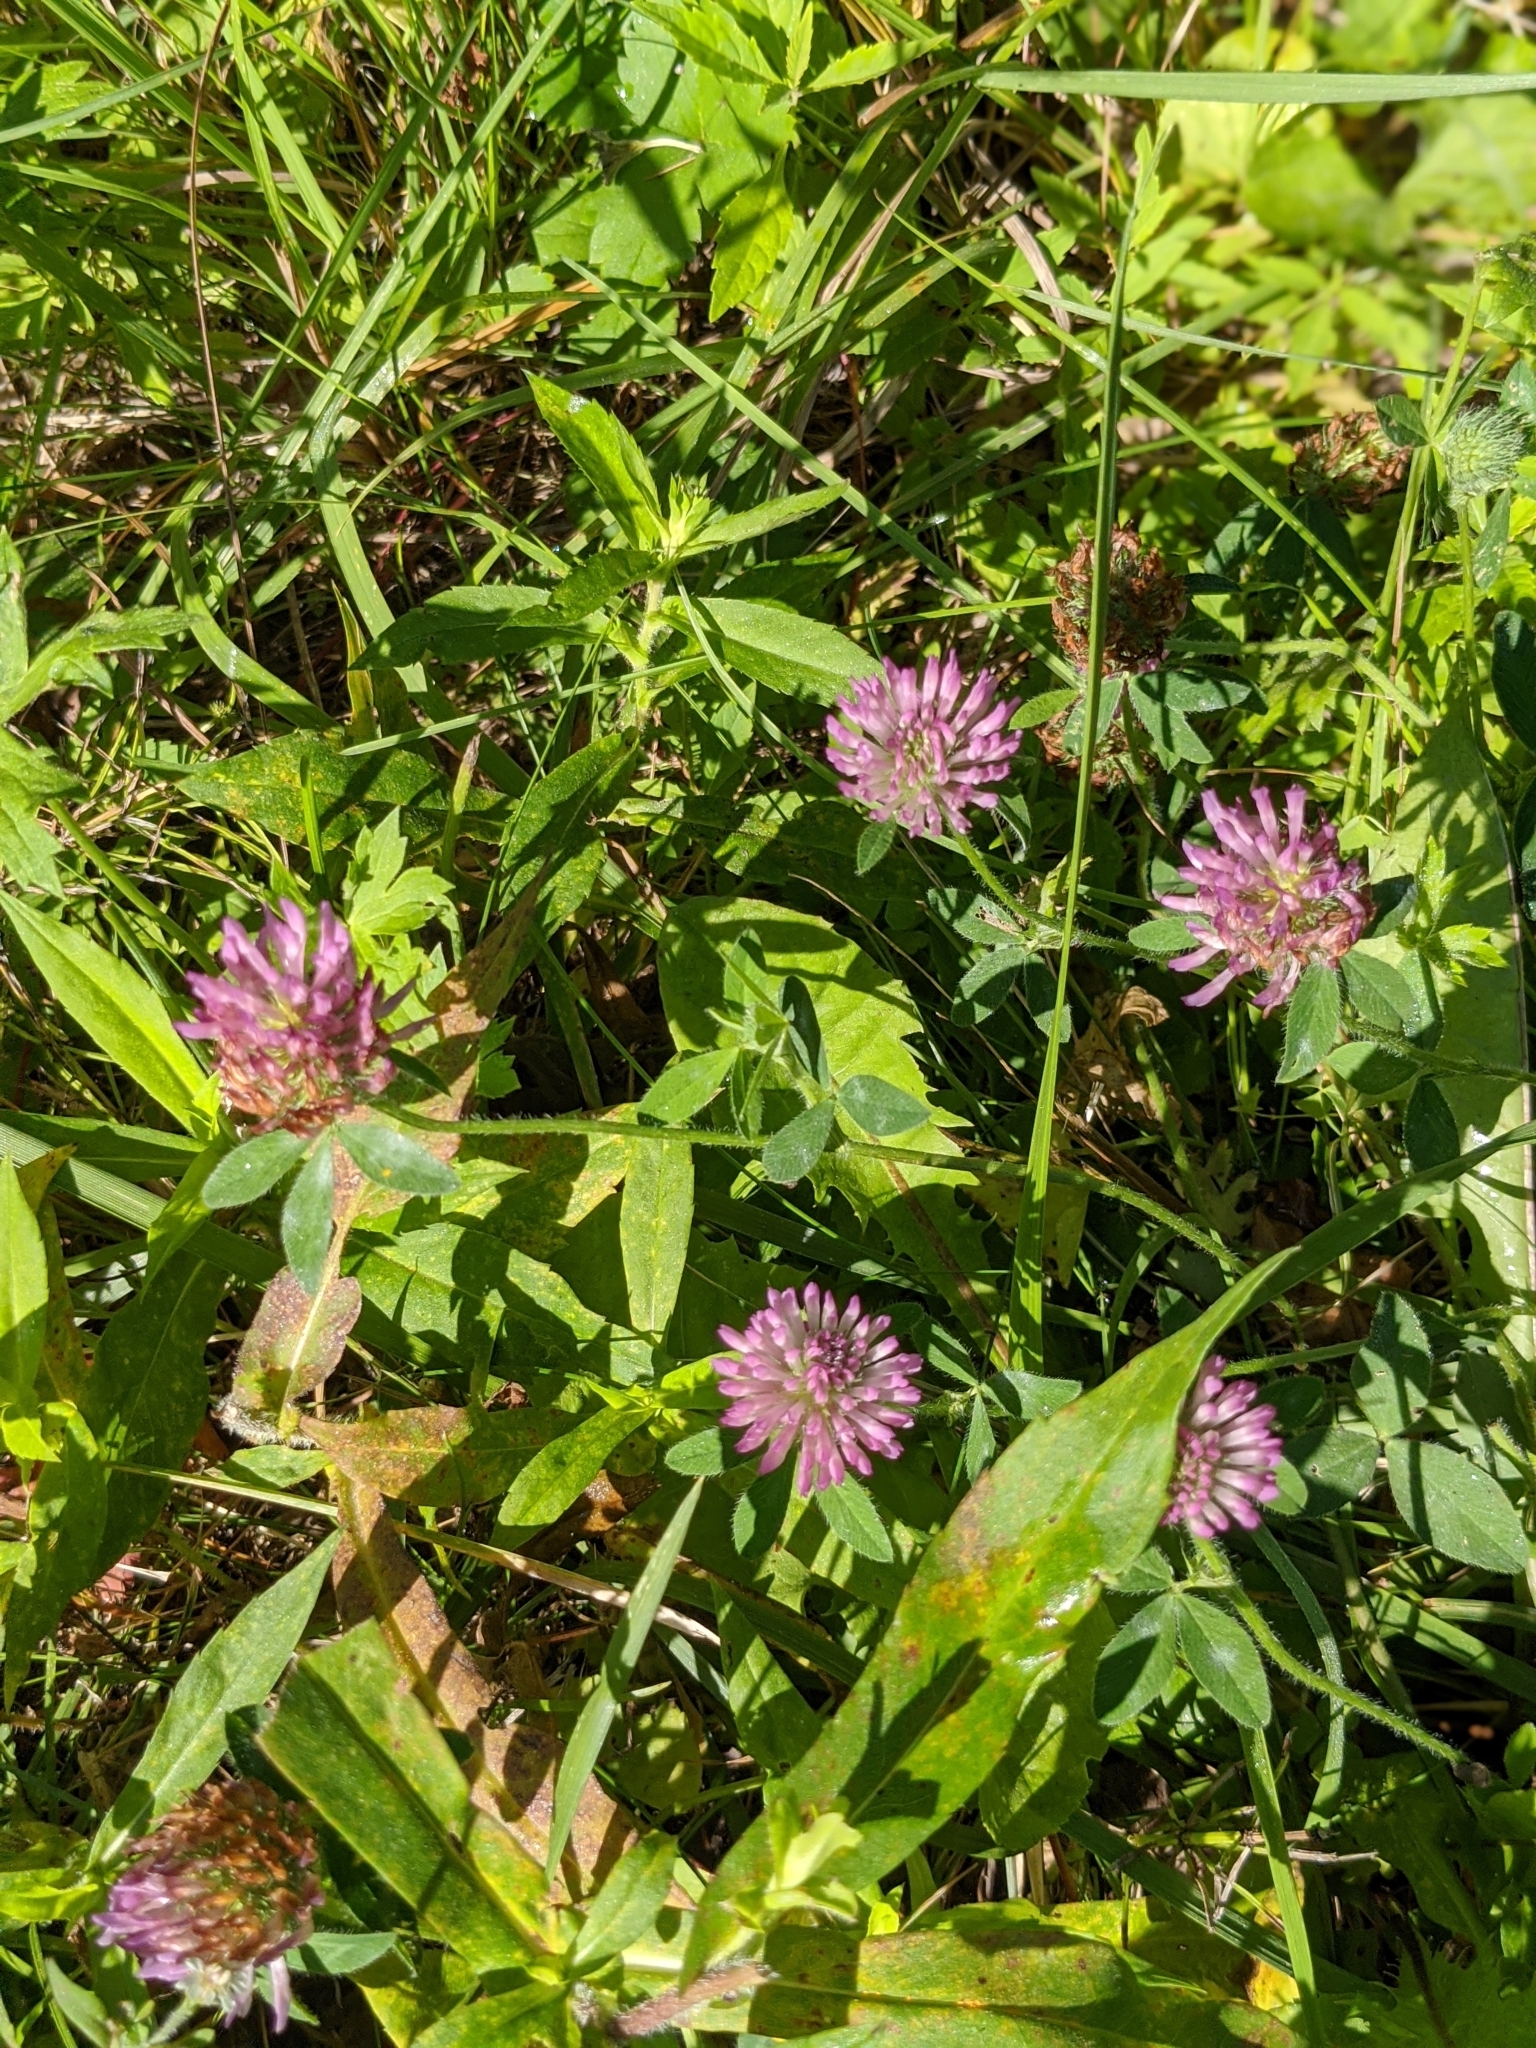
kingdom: Plantae
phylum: Tracheophyta
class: Magnoliopsida
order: Fabales
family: Fabaceae
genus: Trifolium
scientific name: Trifolium pratense
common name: Red clover
